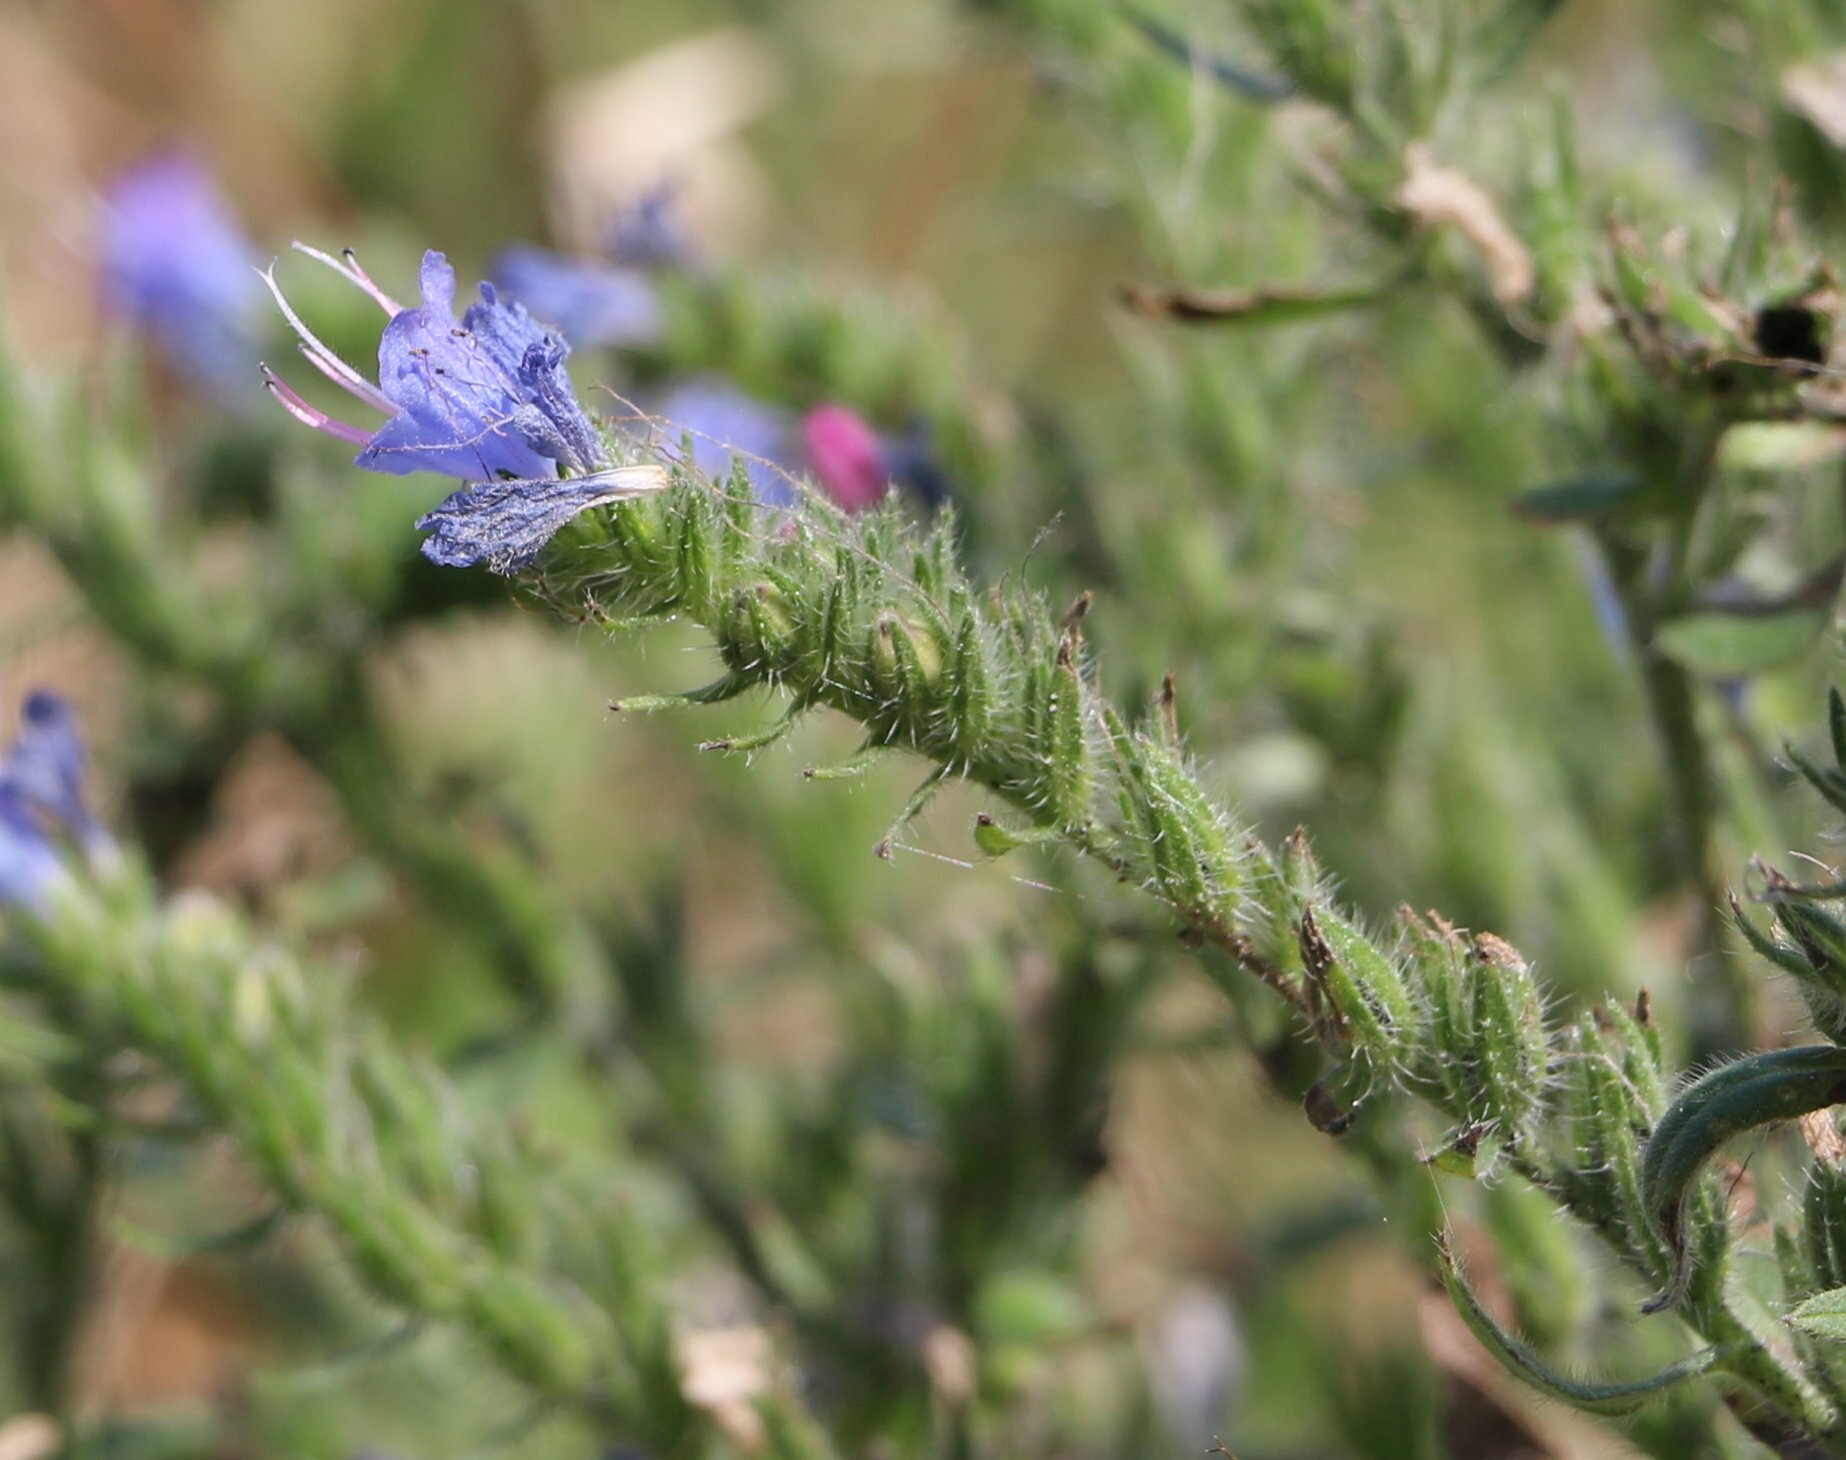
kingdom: Plantae
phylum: Tracheophyta
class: Magnoliopsida
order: Boraginales
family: Boraginaceae
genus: Echium
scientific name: Echium vulgare
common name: Common viper's bugloss
